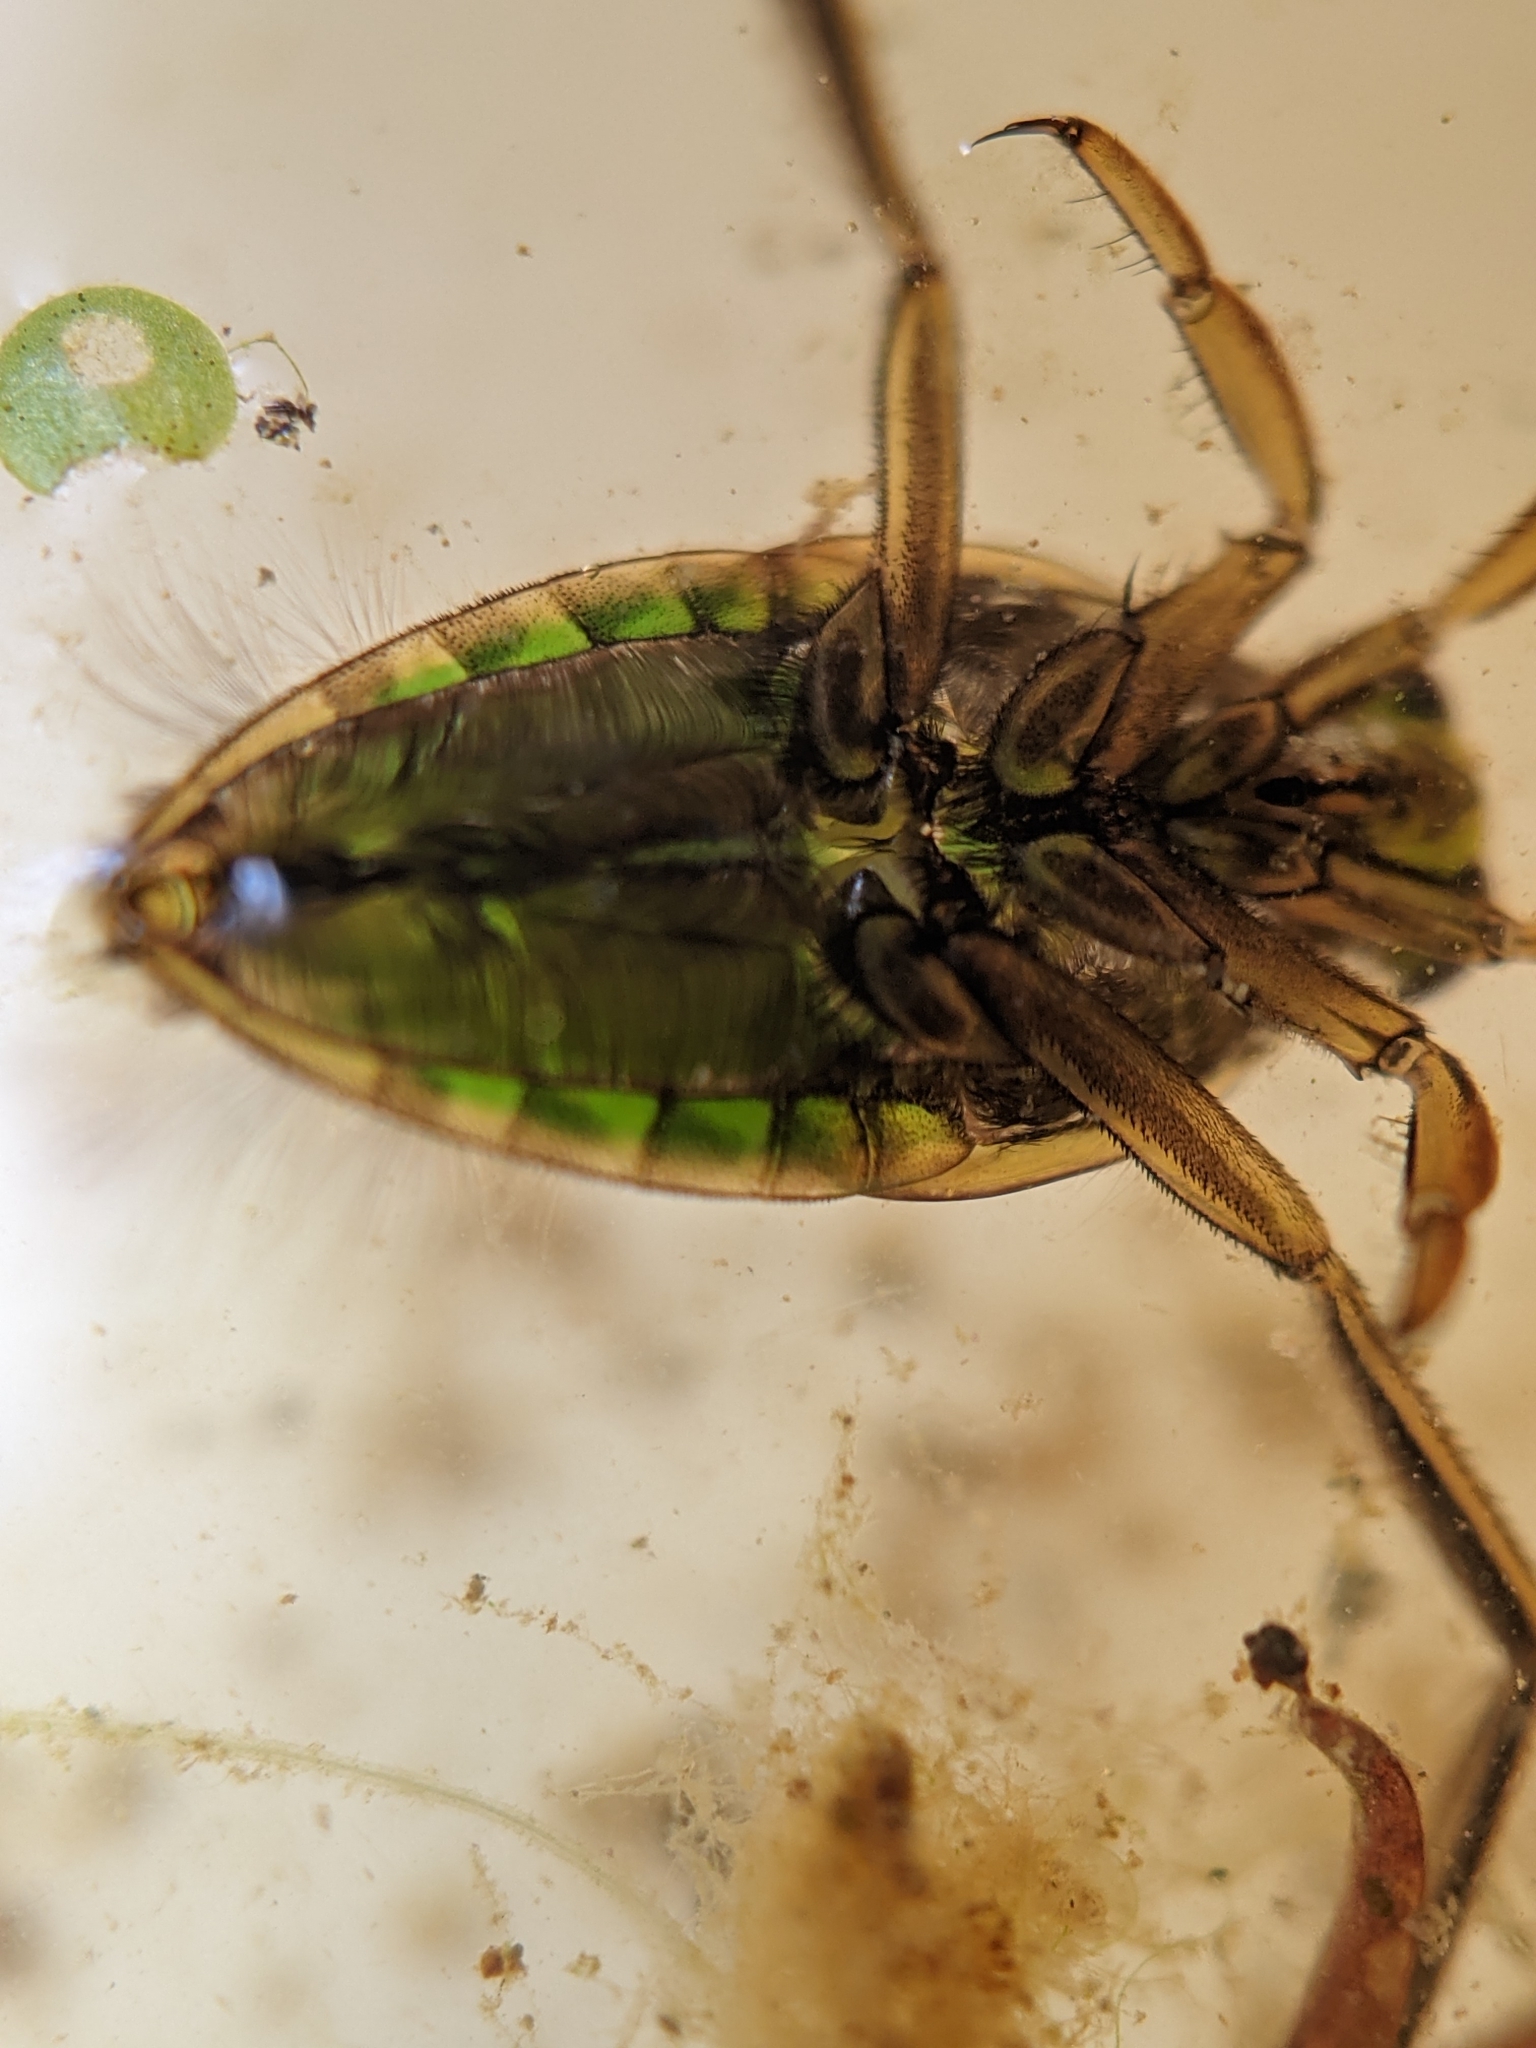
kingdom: Animalia
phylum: Arthropoda
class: Insecta
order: Hemiptera
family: Notonectidae
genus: Notonecta
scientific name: Notonecta
